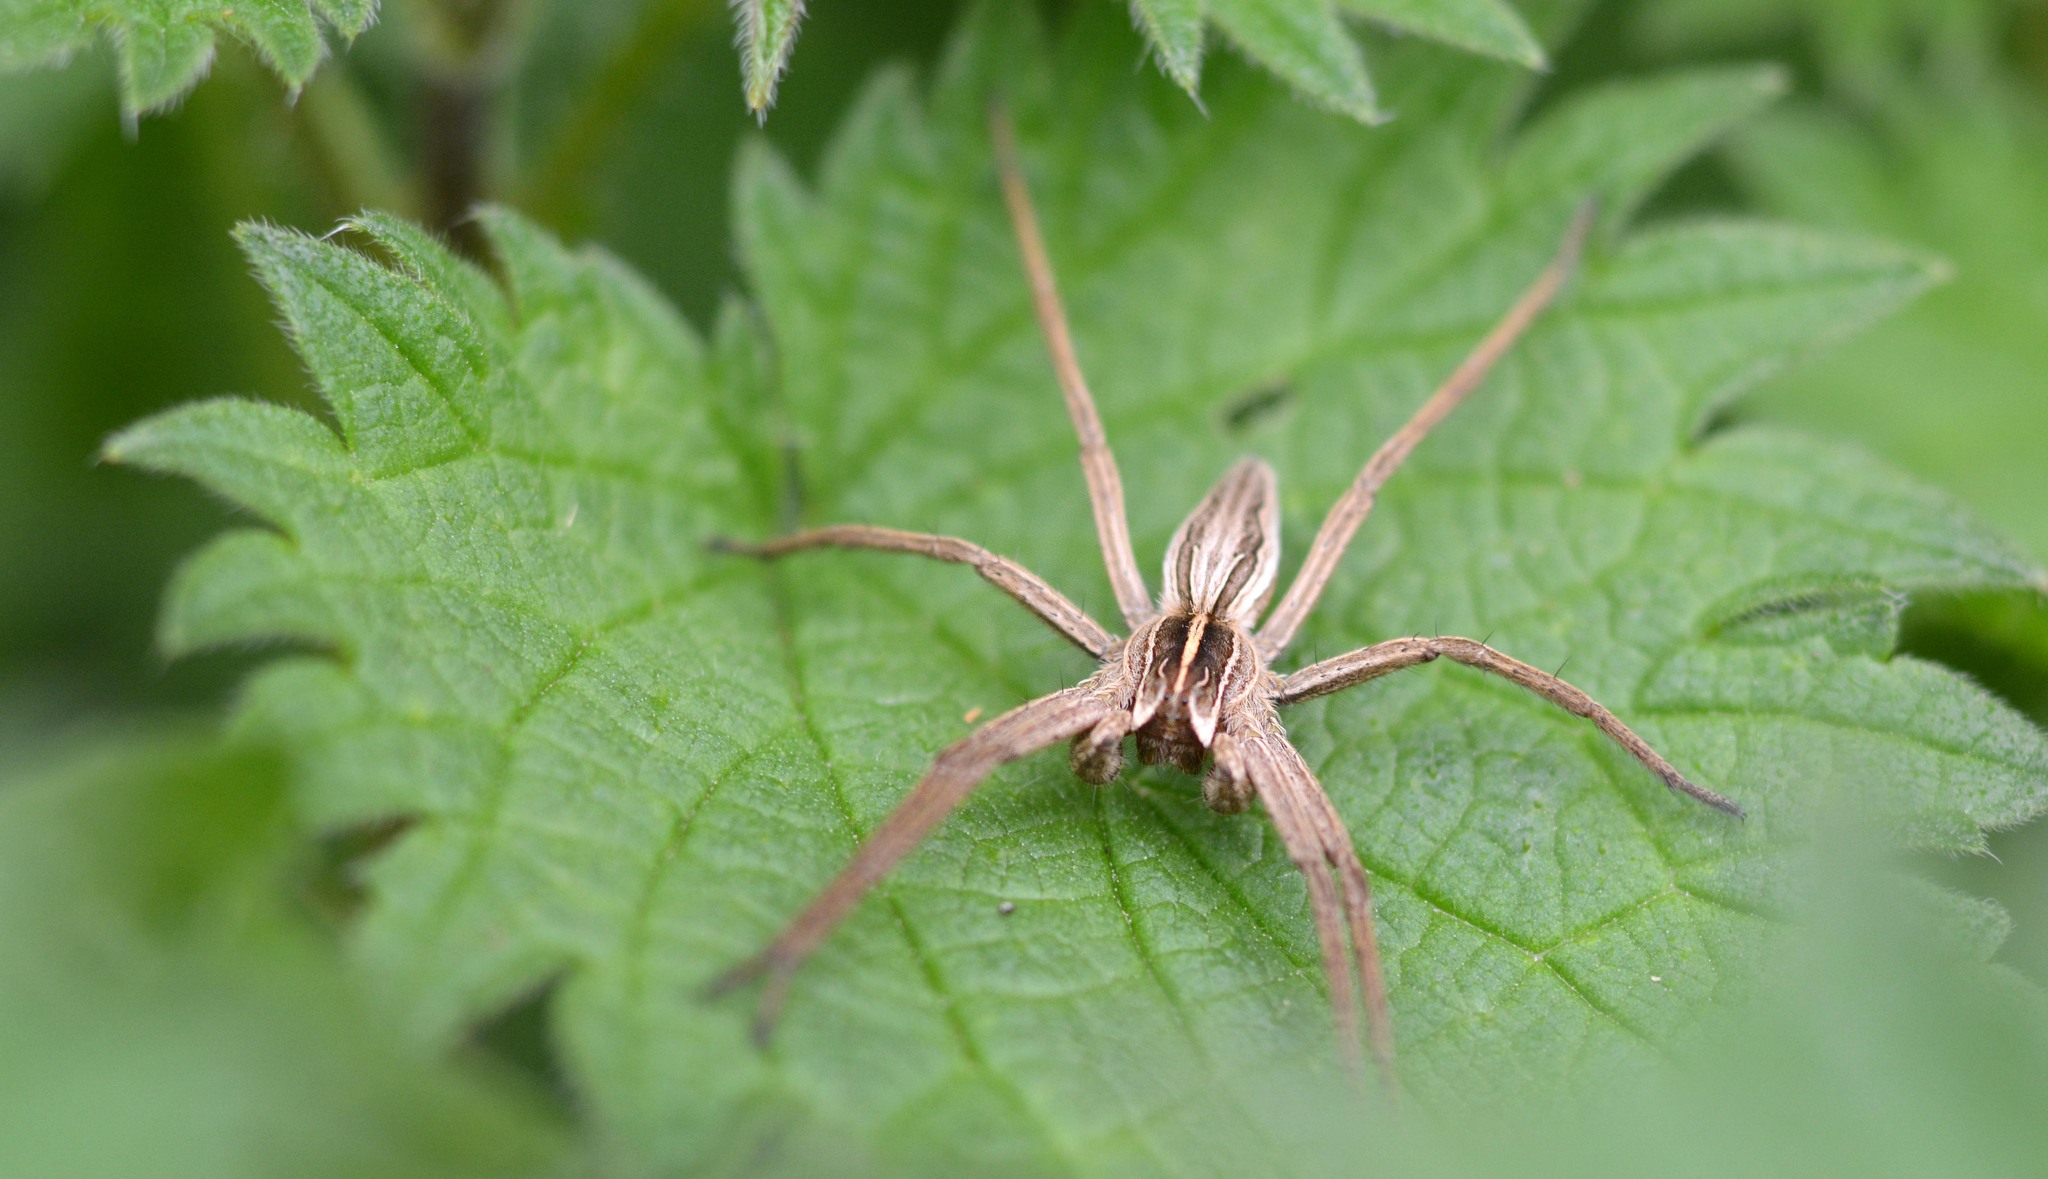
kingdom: Animalia
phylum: Arthropoda
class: Arachnida
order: Araneae
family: Pisauridae
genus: Pisaura
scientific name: Pisaura mirabilis
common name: Tent spider
